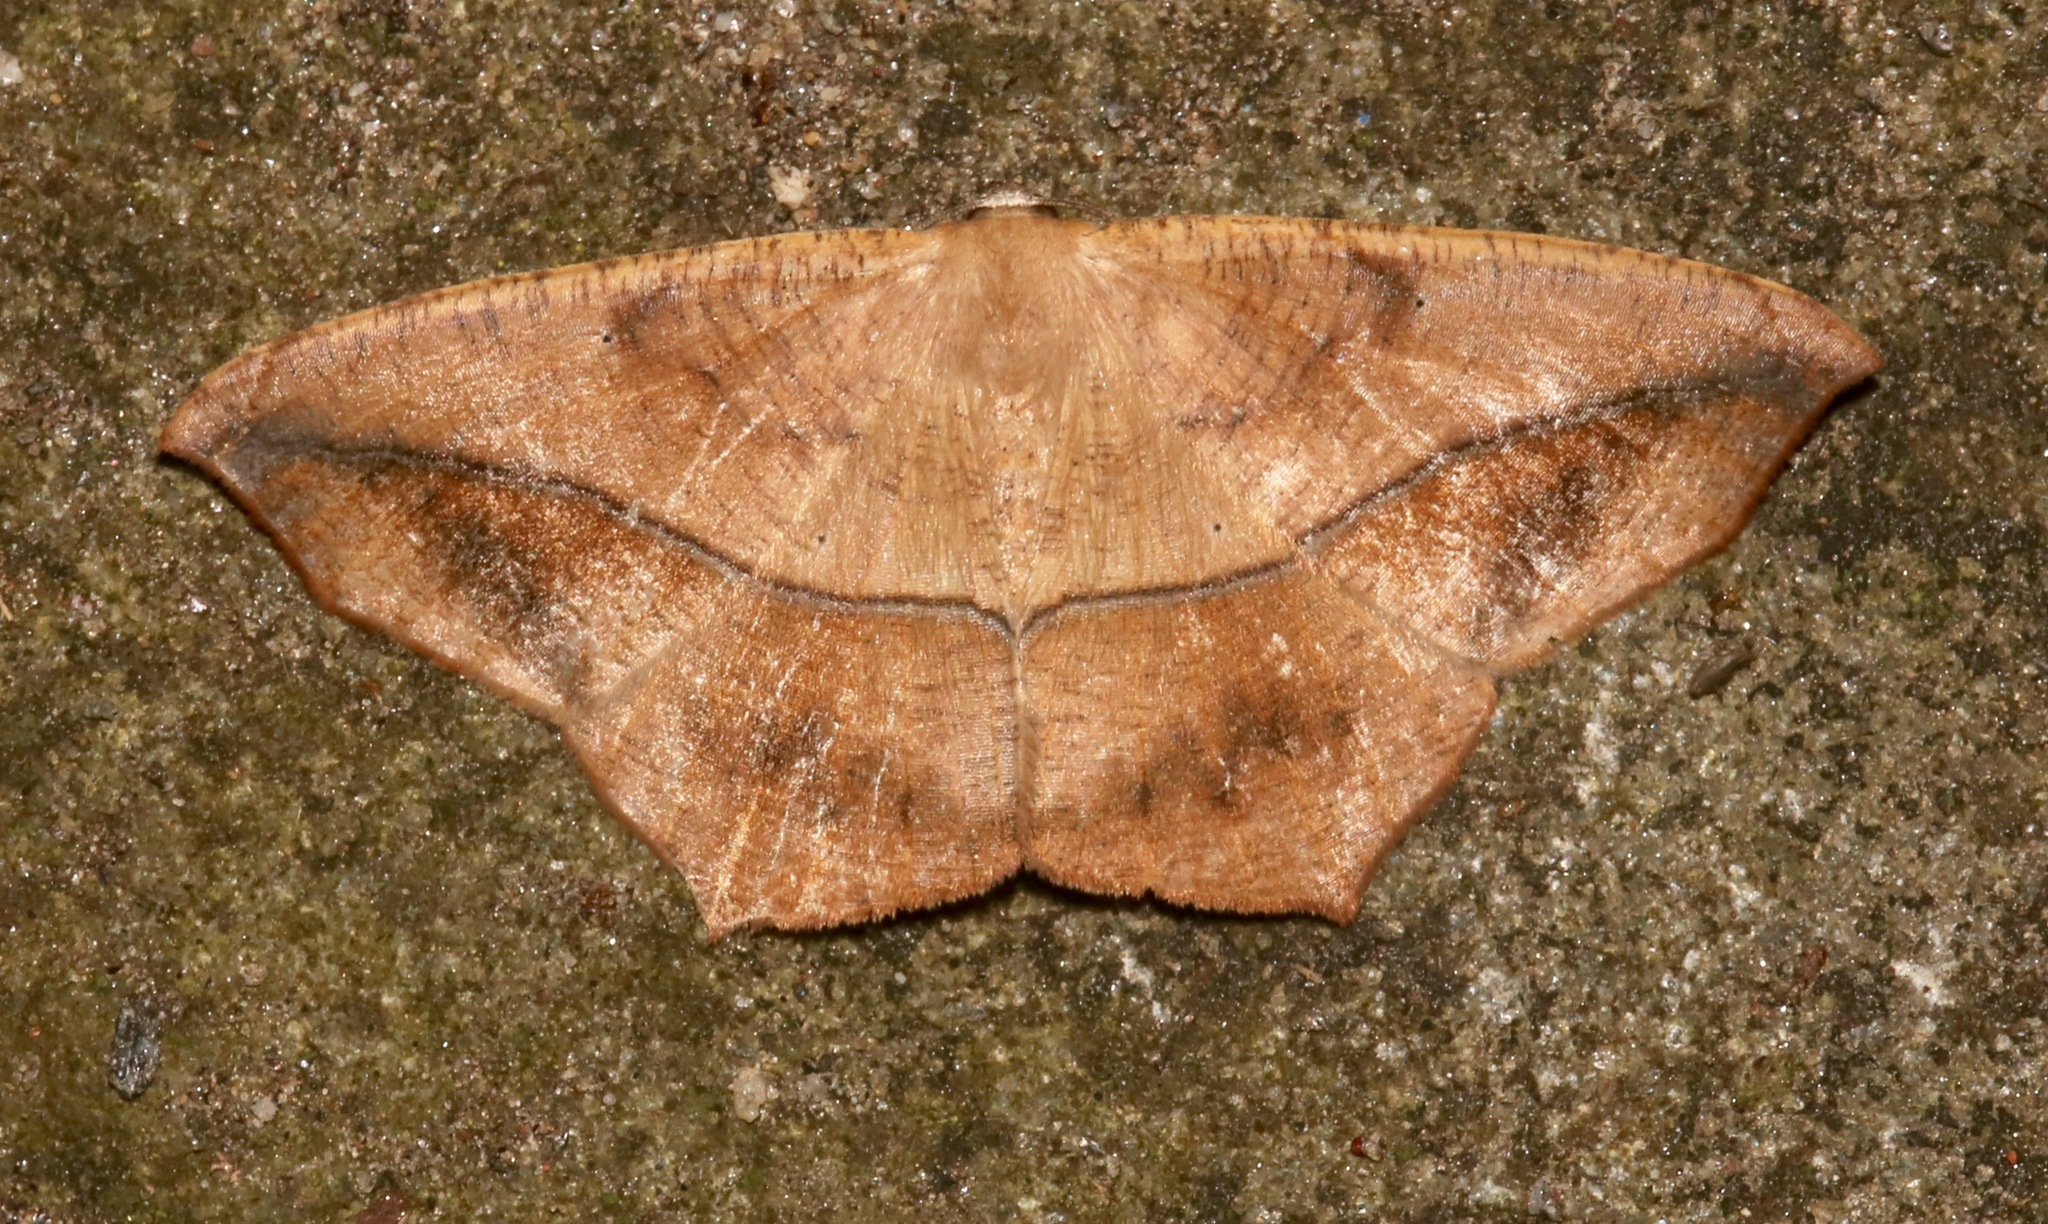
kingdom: Animalia
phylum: Arthropoda
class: Insecta
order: Lepidoptera
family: Geometridae
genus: Prochoerodes
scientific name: Prochoerodes lineola
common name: Large maple spanworm
